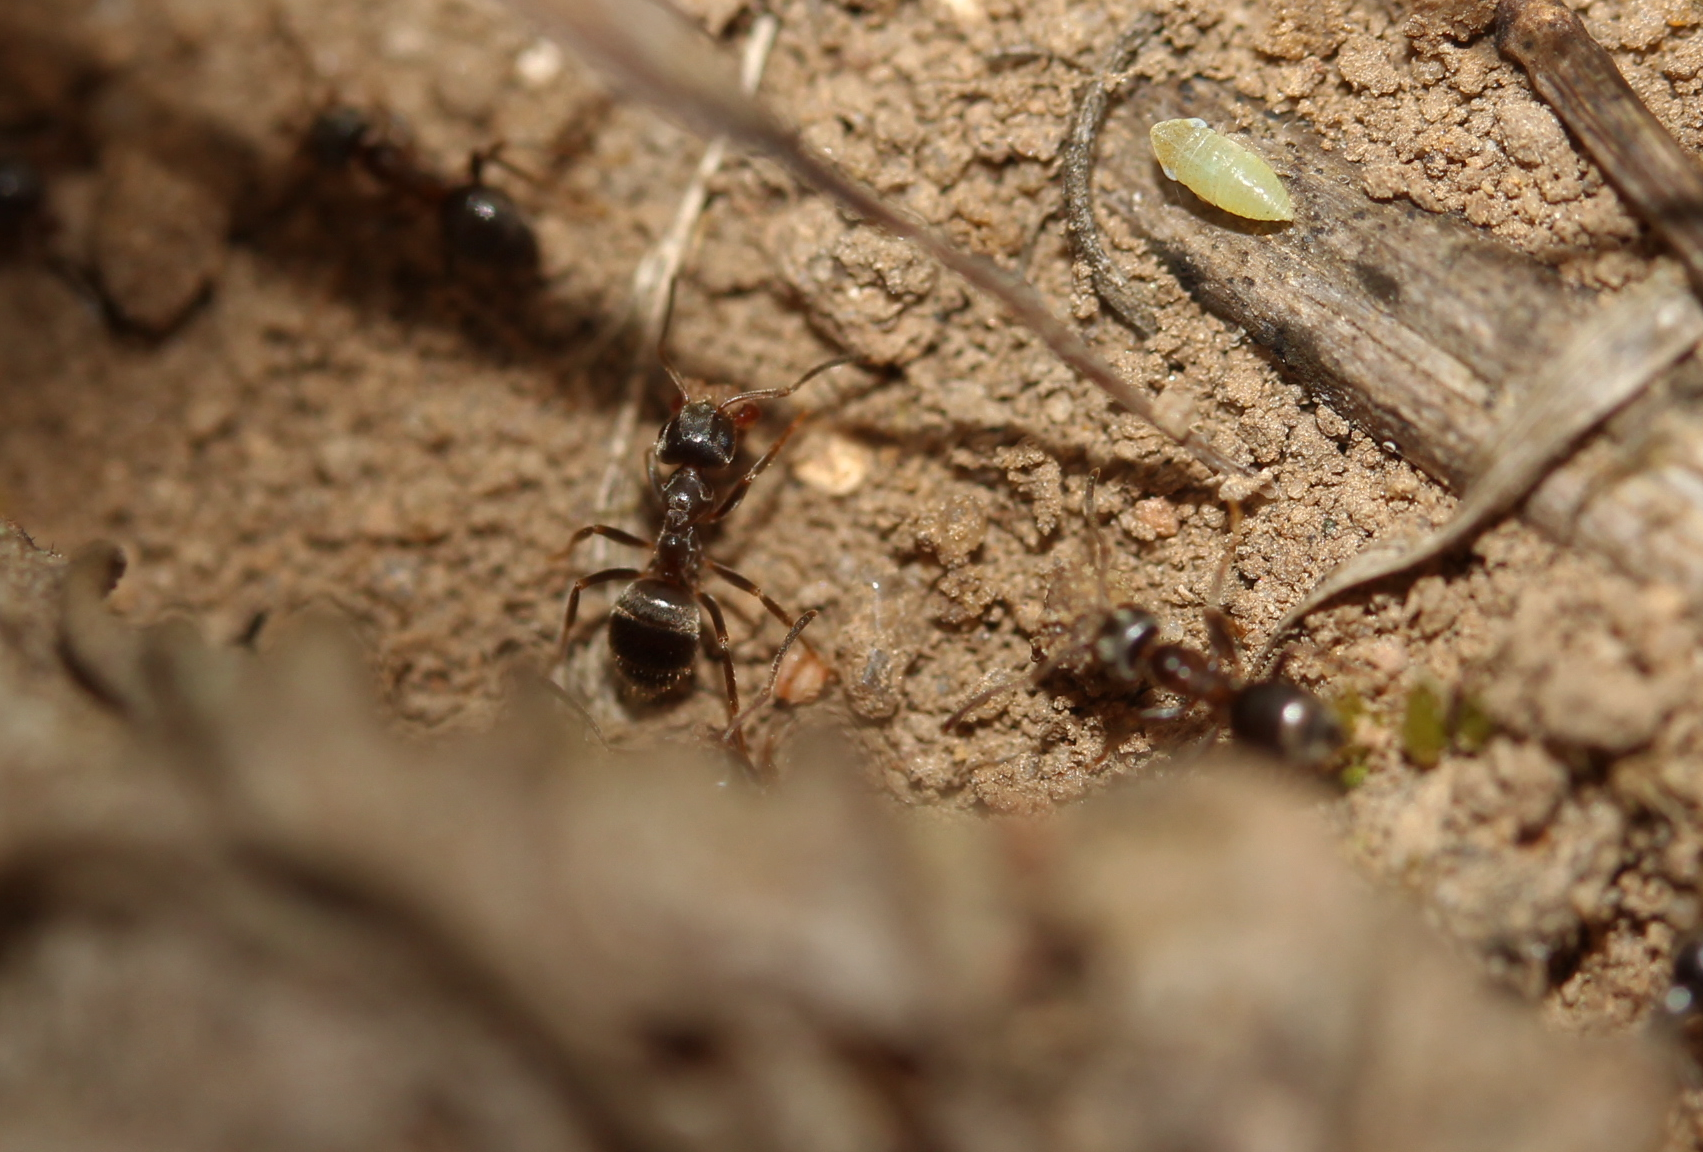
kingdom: Animalia
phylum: Arthropoda
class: Insecta
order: Hymenoptera
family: Formicidae
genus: Lasius
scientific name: Lasius
